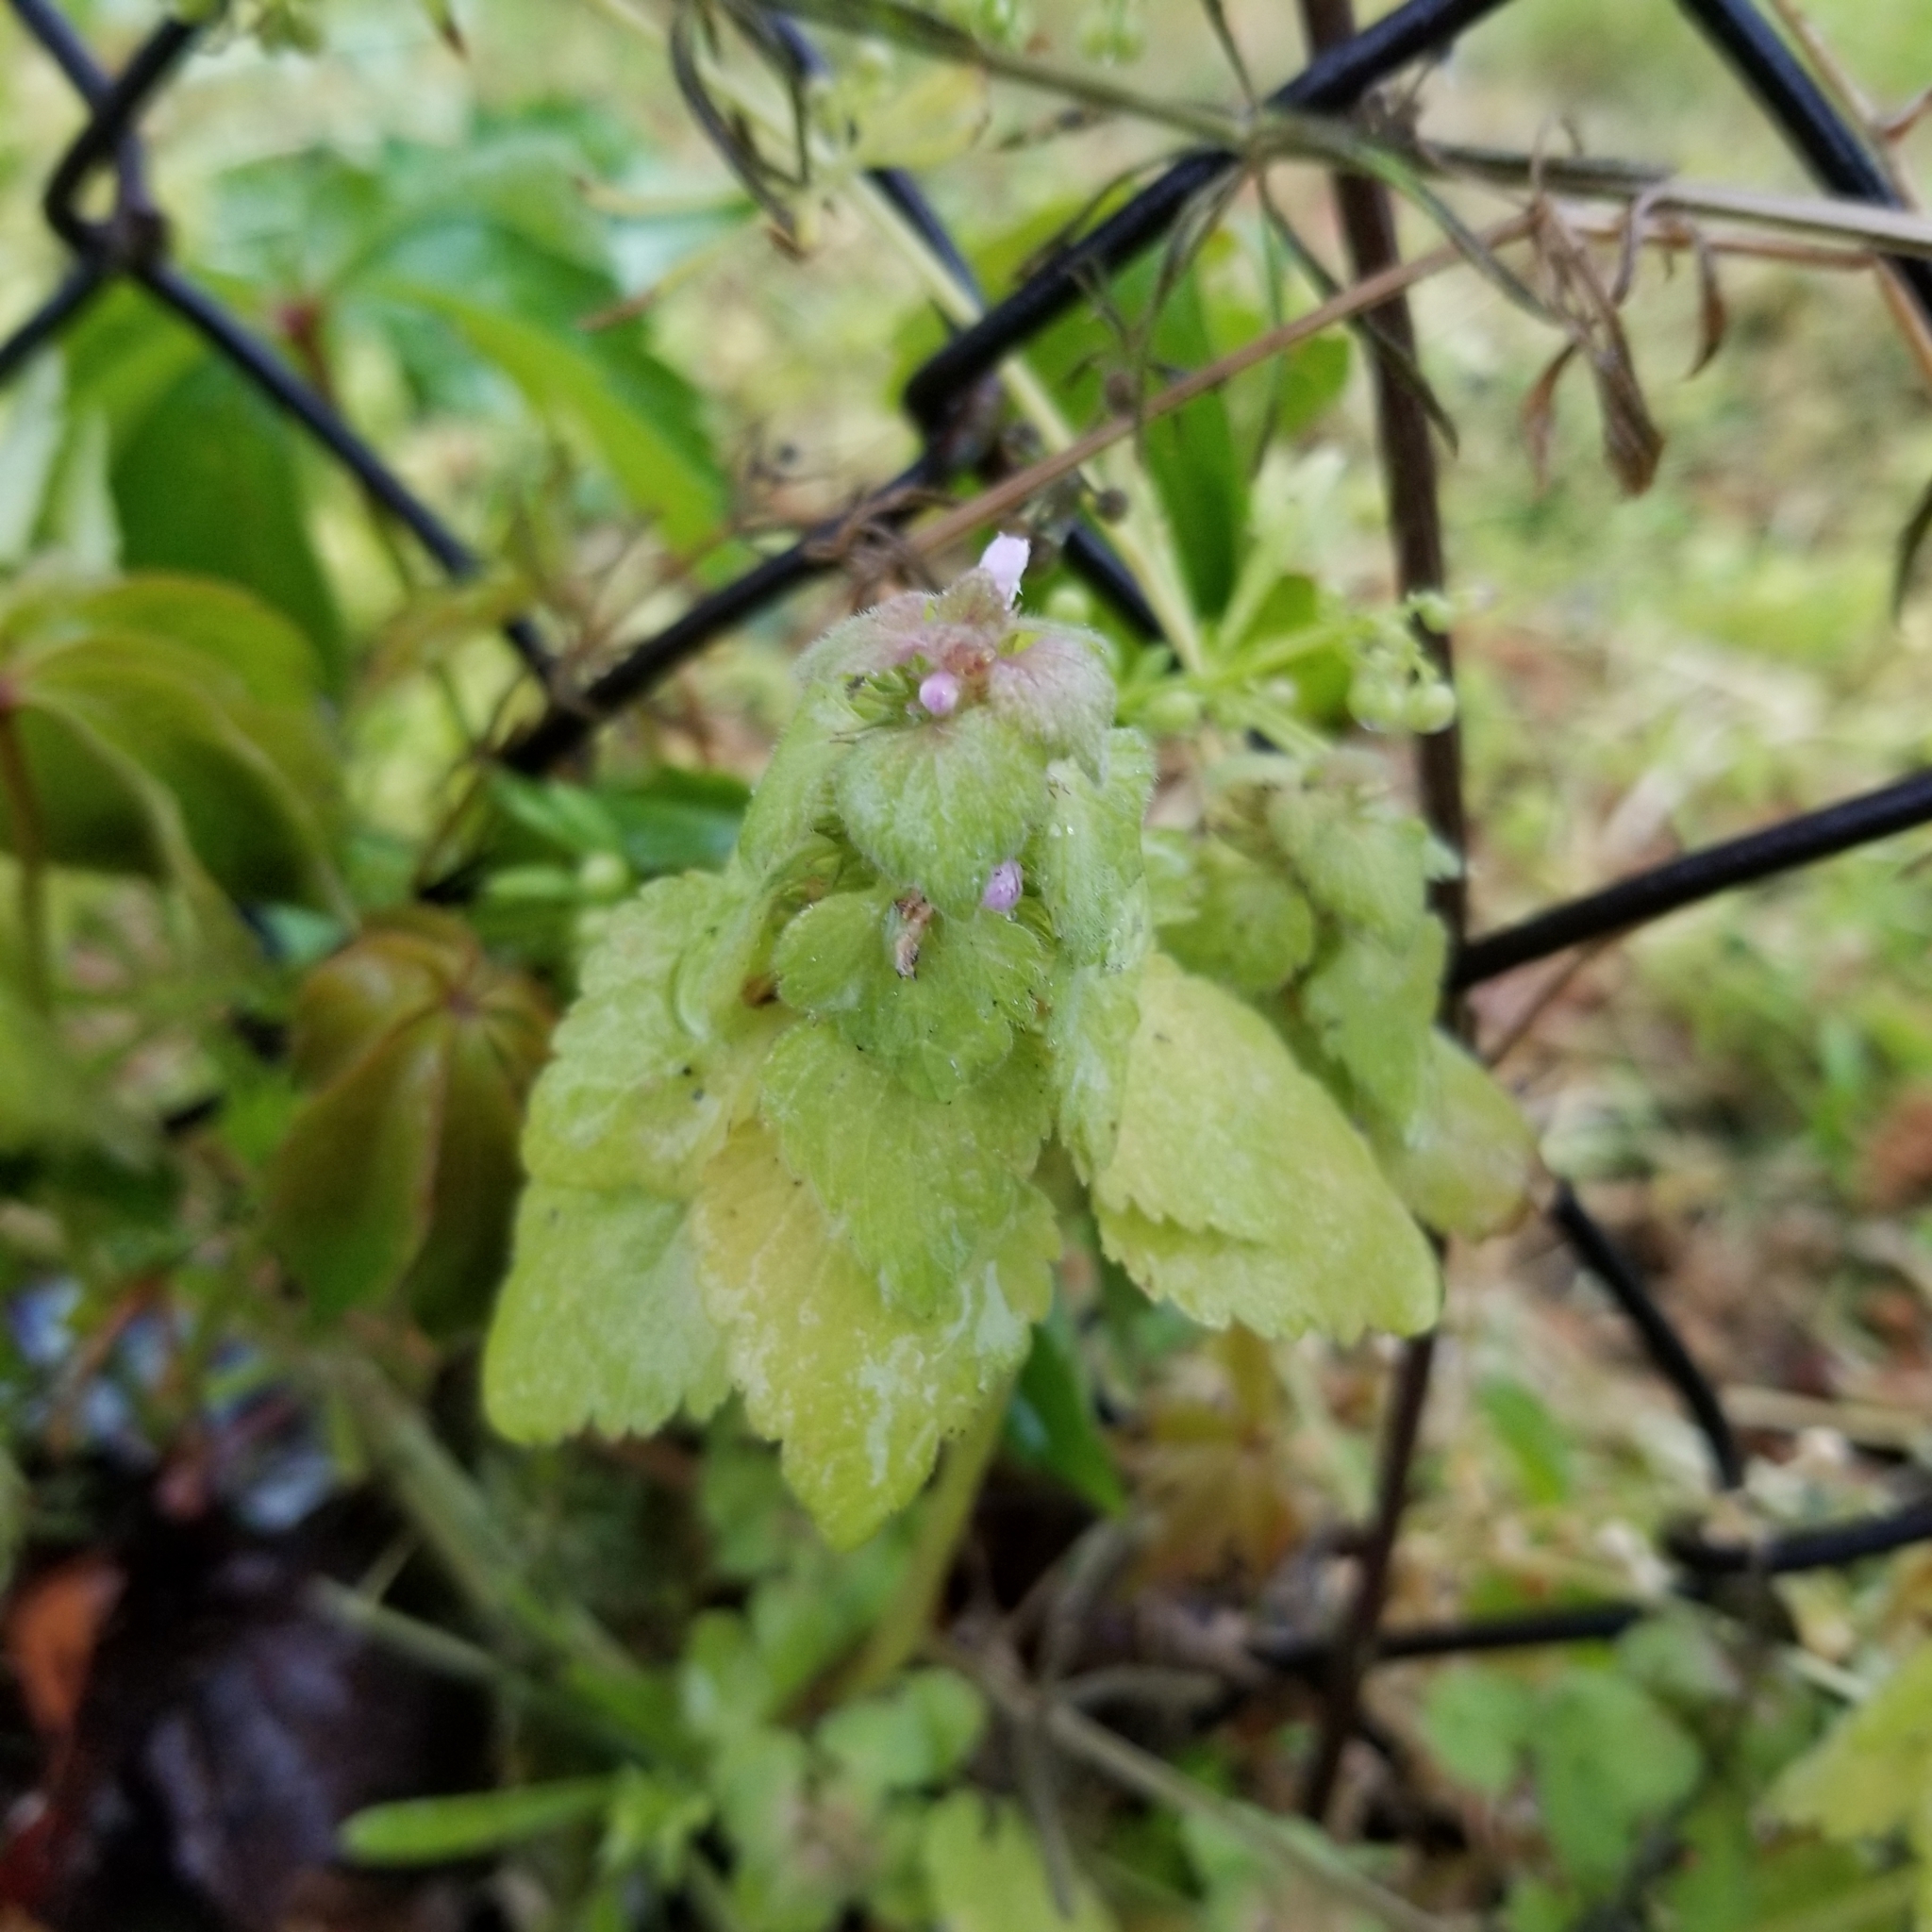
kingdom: Plantae
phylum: Tracheophyta
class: Magnoliopsida
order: Lamiales
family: Lamiaceae
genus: Lamium
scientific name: Lamium purpureum
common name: Red dead-nettle
